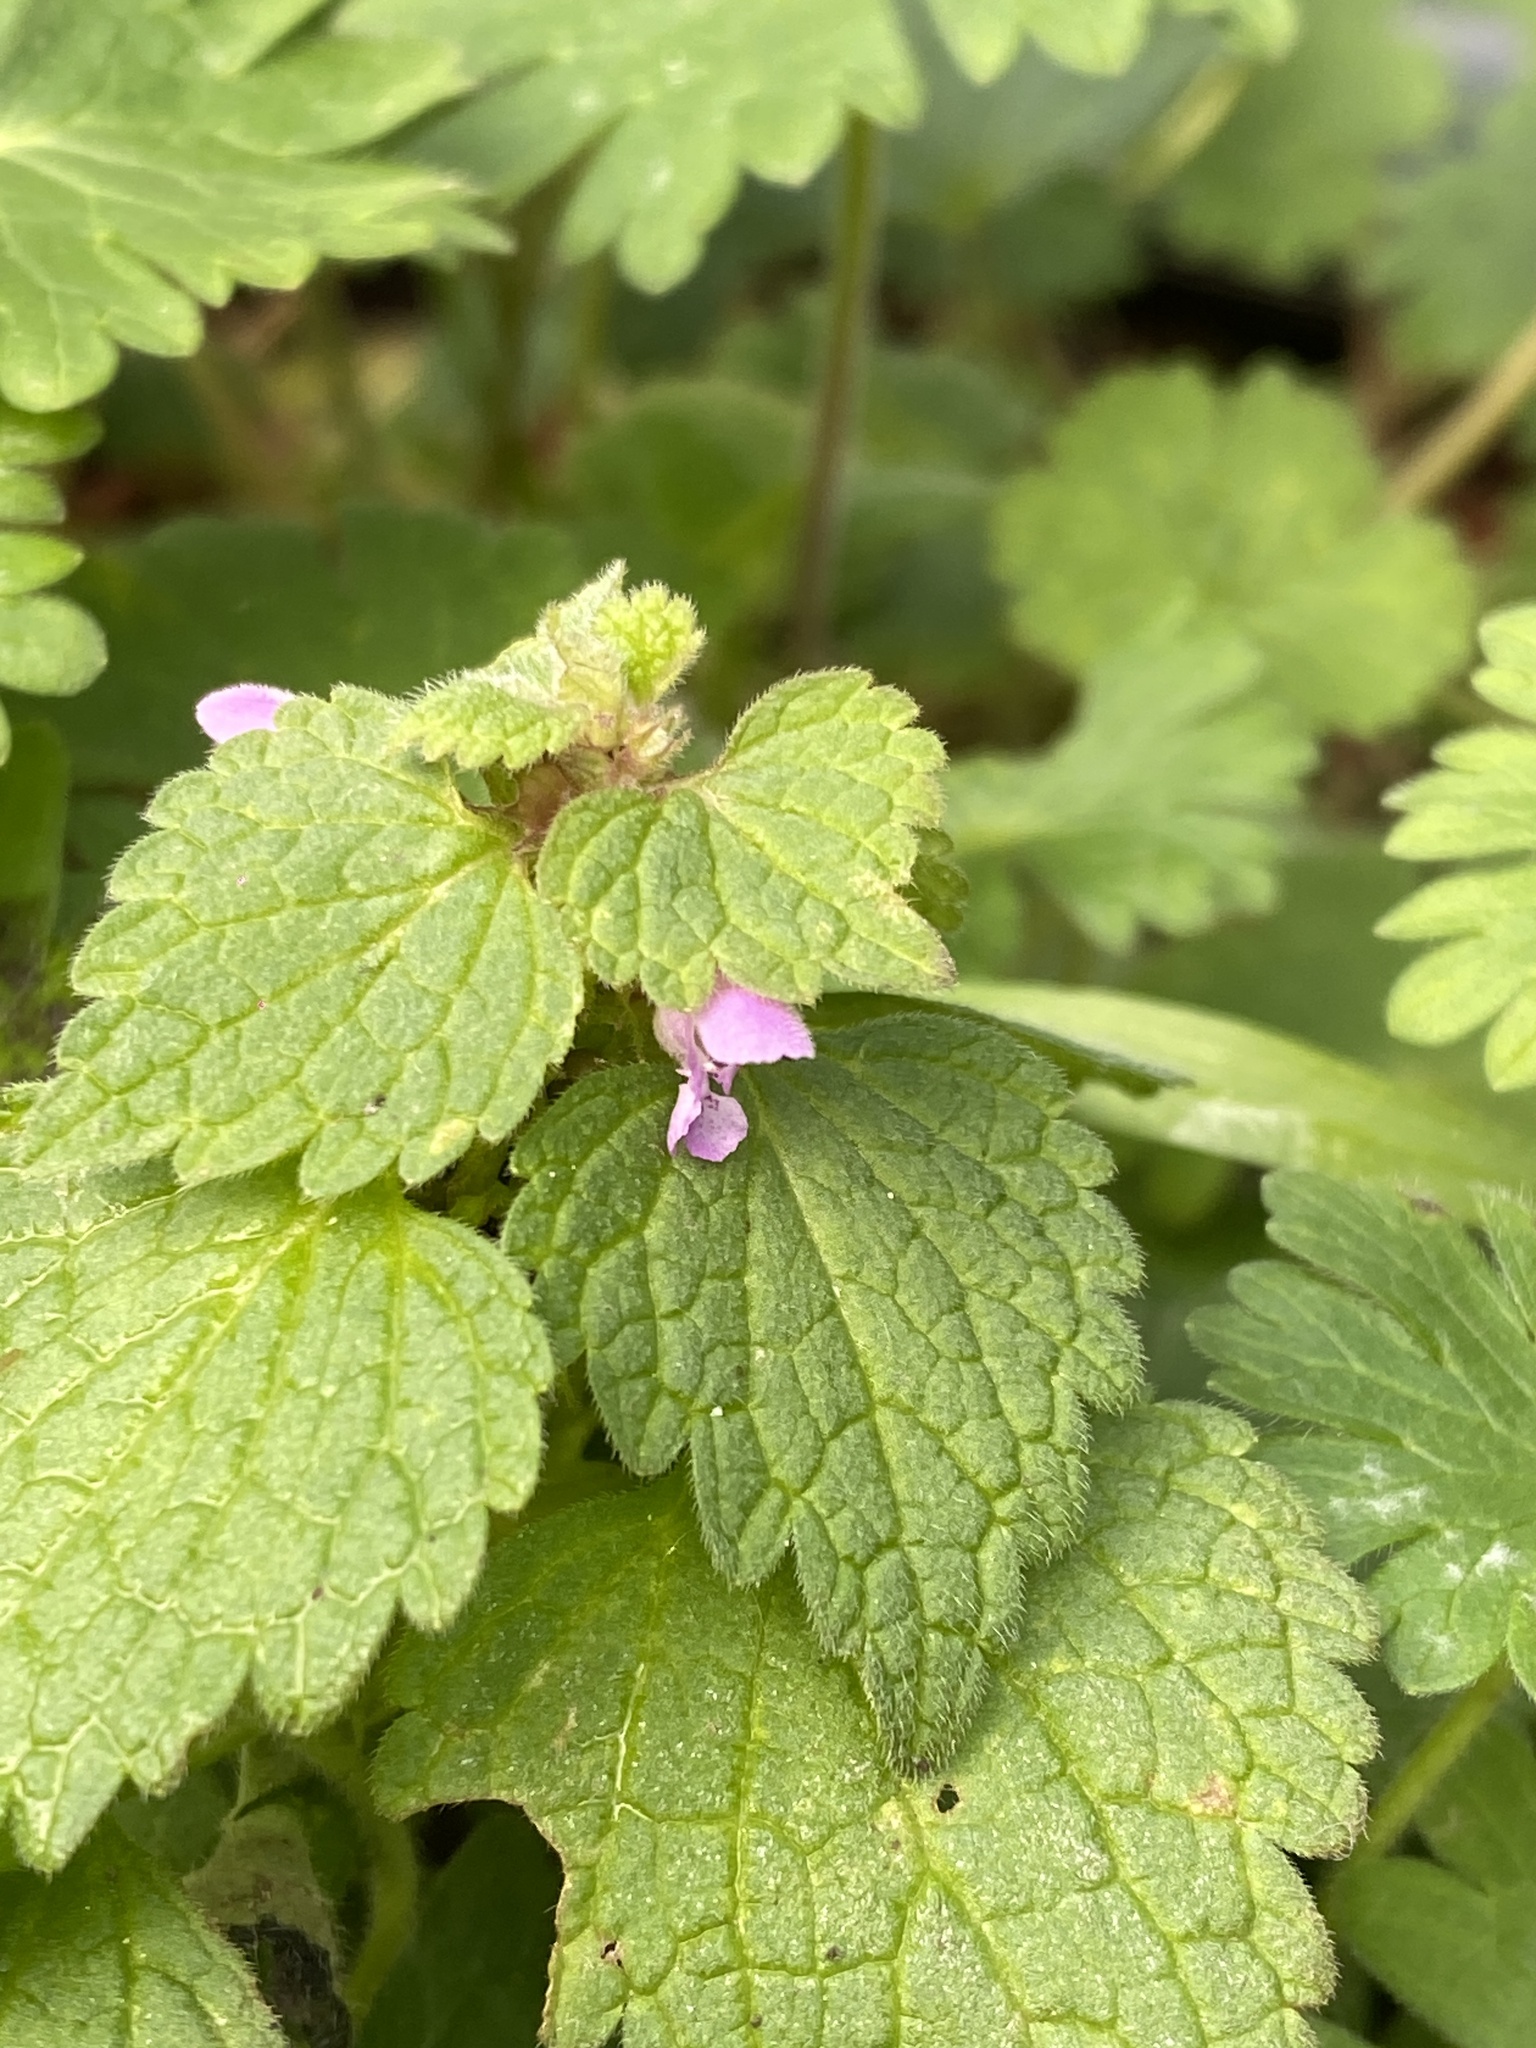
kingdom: Plantae
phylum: Tracheophyta
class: Magnoliopsida
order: Lamiales
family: Lamiaceae
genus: Lamium
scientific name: Lamium purpureum
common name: Red dead-nettle
